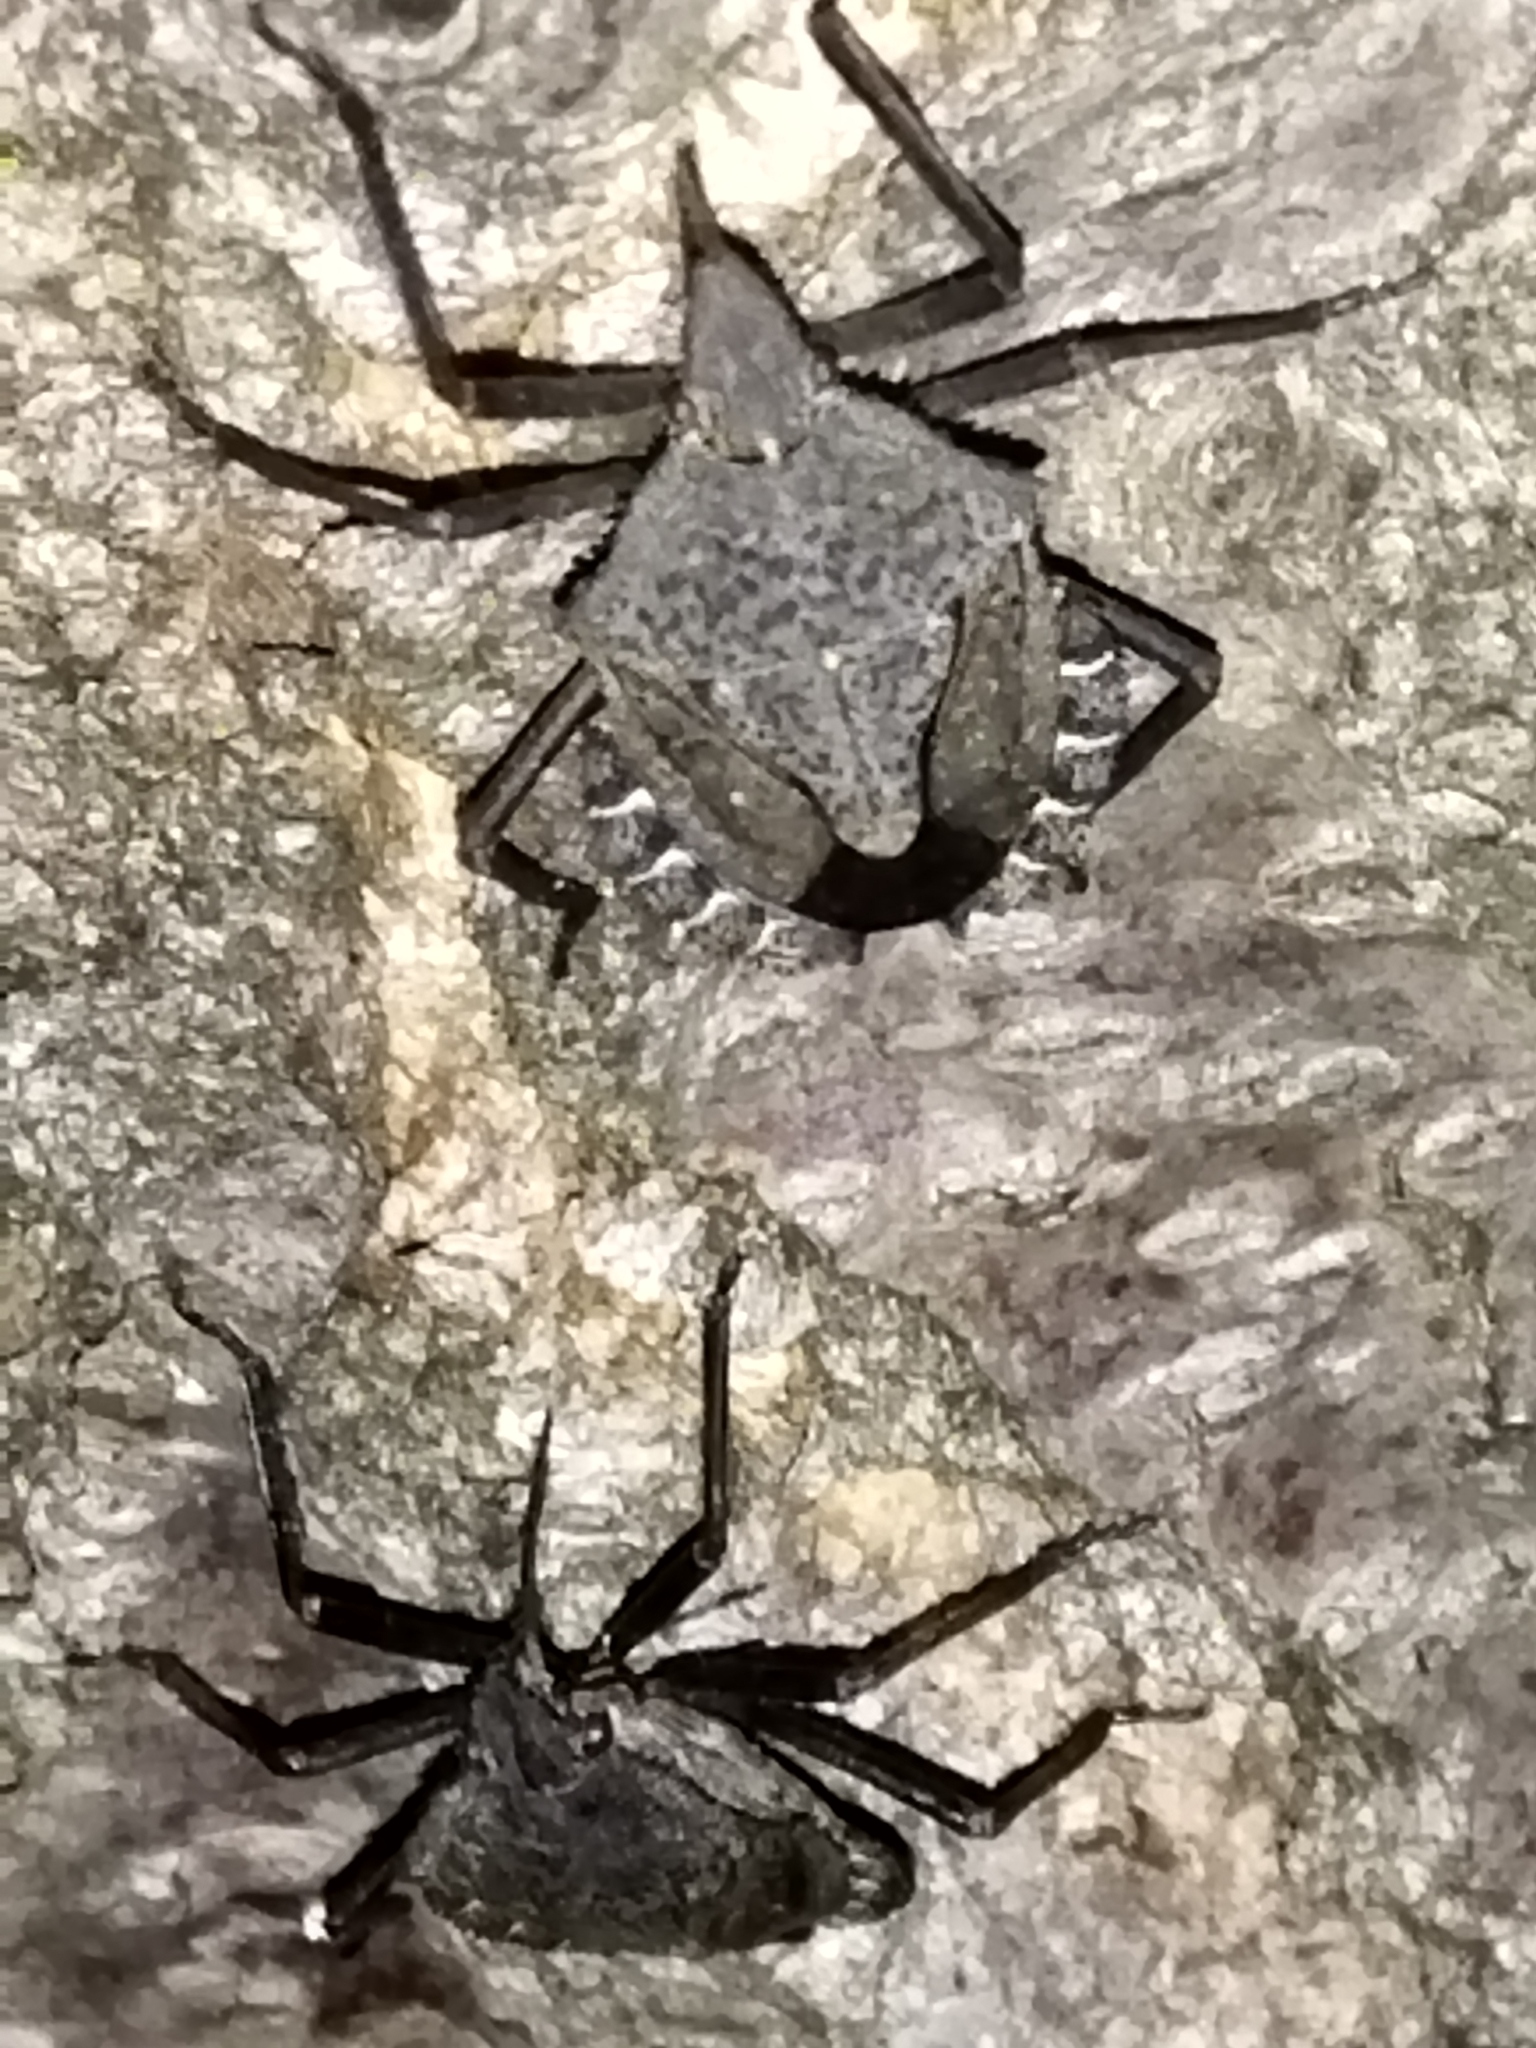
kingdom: Animalia
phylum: Arthropoda
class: Insecta
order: Hemiptera
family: Pentatomidae
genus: Mustha
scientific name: Mustha spinosula
